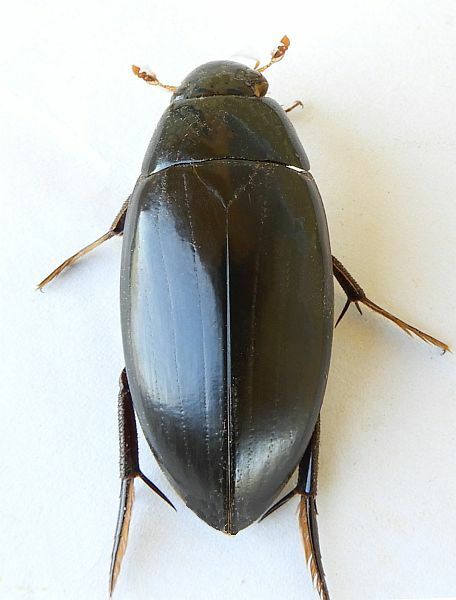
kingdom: Animalia
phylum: Arthropoda
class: Insecta
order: Coleoptera
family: Hydrophilidae
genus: Hydrophilus
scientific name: Hydrophilus triangularis
